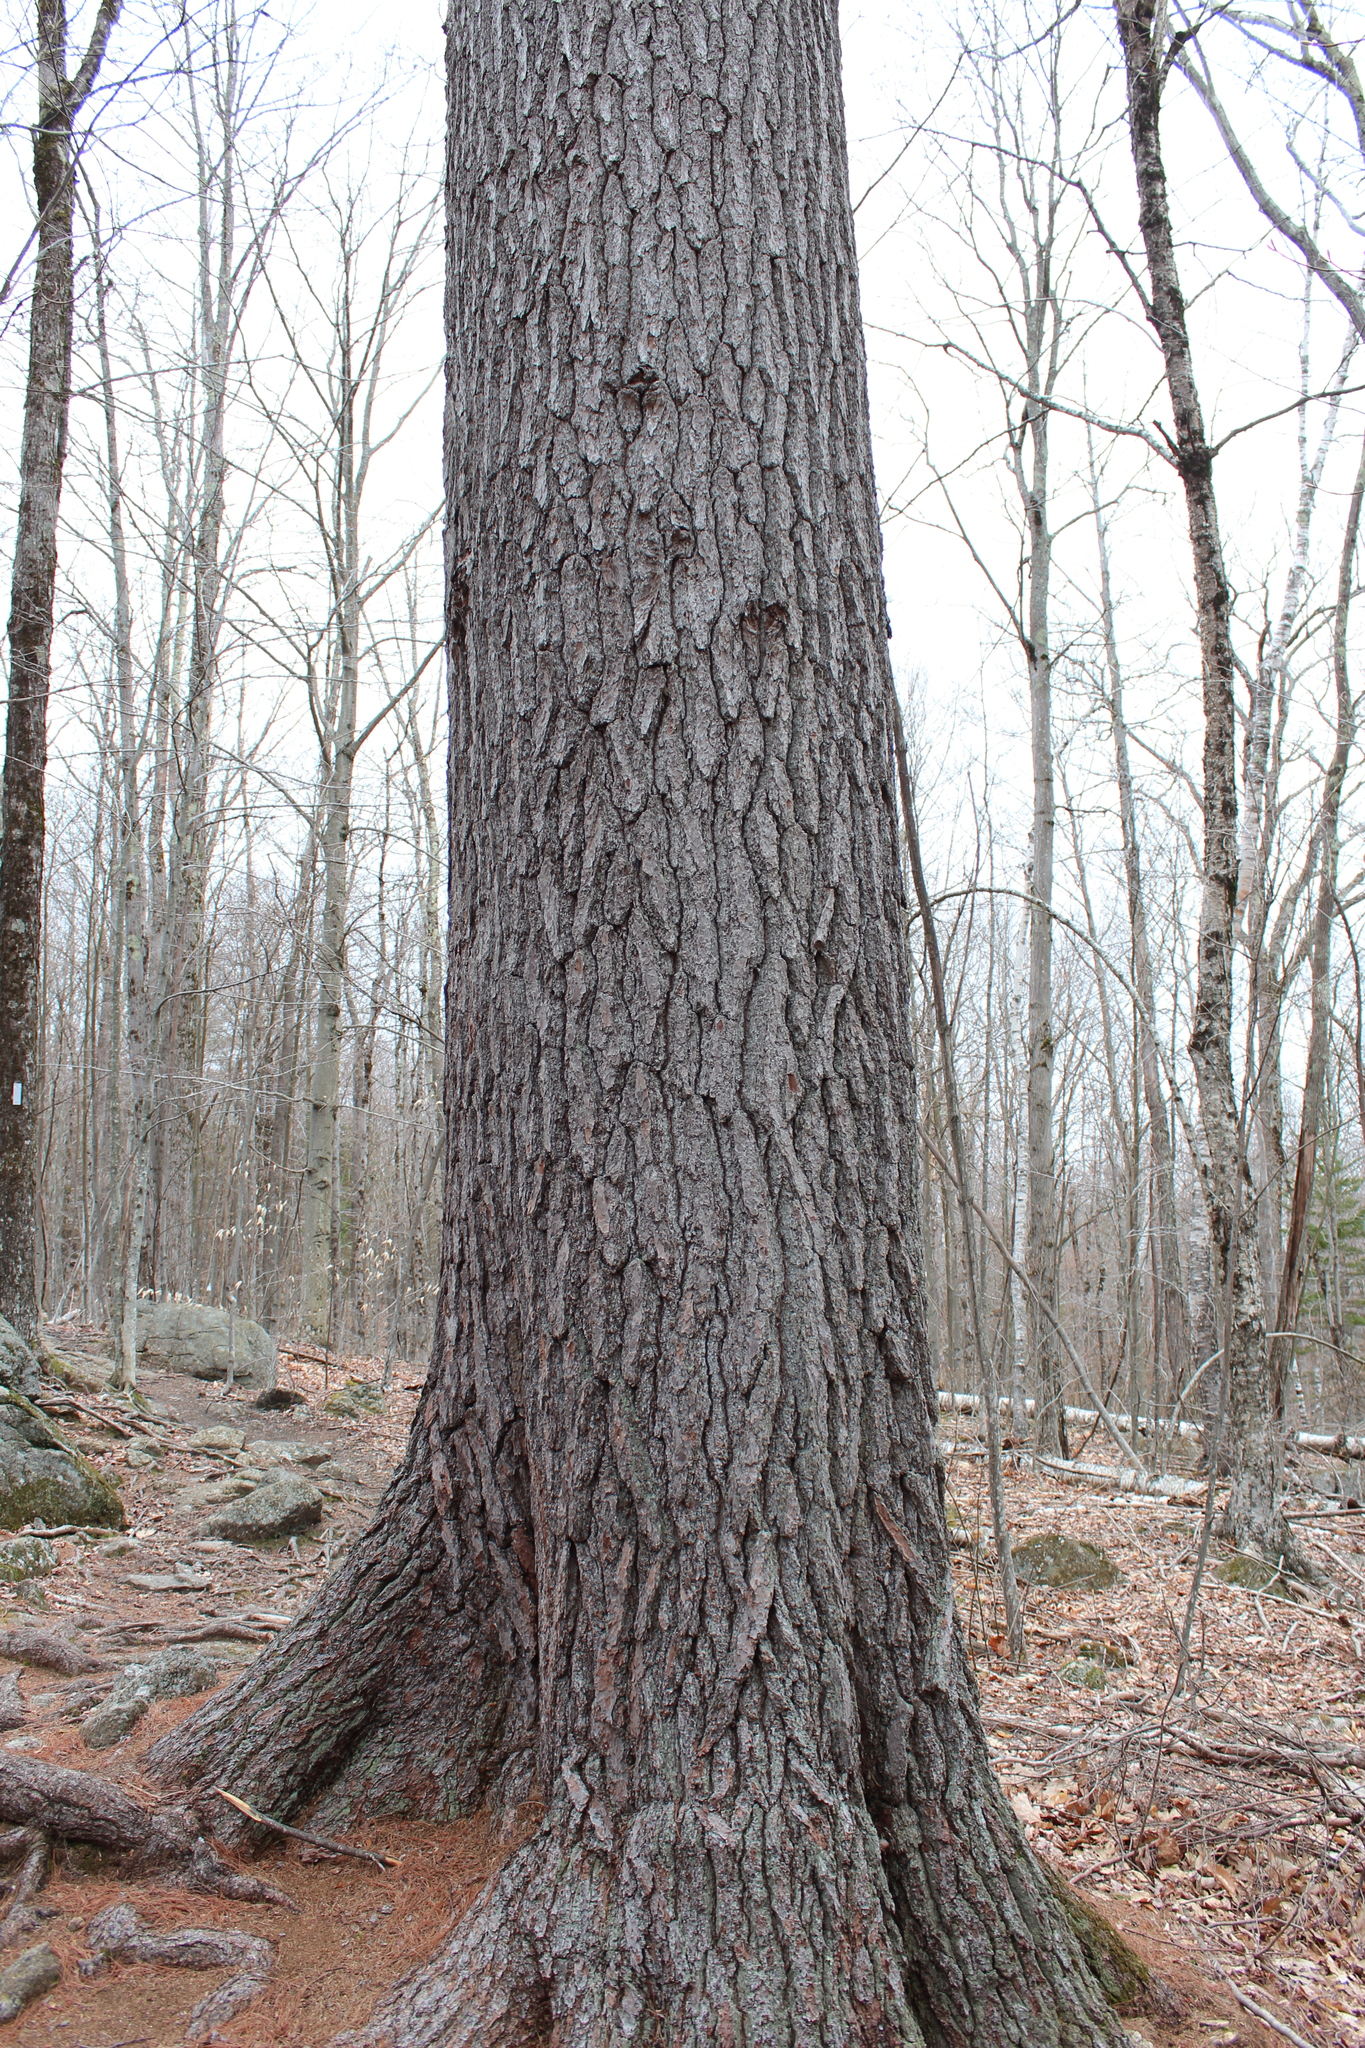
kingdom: Plantae
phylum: Tracheophyta
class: Pinopsida
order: Pinales
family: Pinaceae
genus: Pinus
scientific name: Pinus strobus
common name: Weymouth pine
